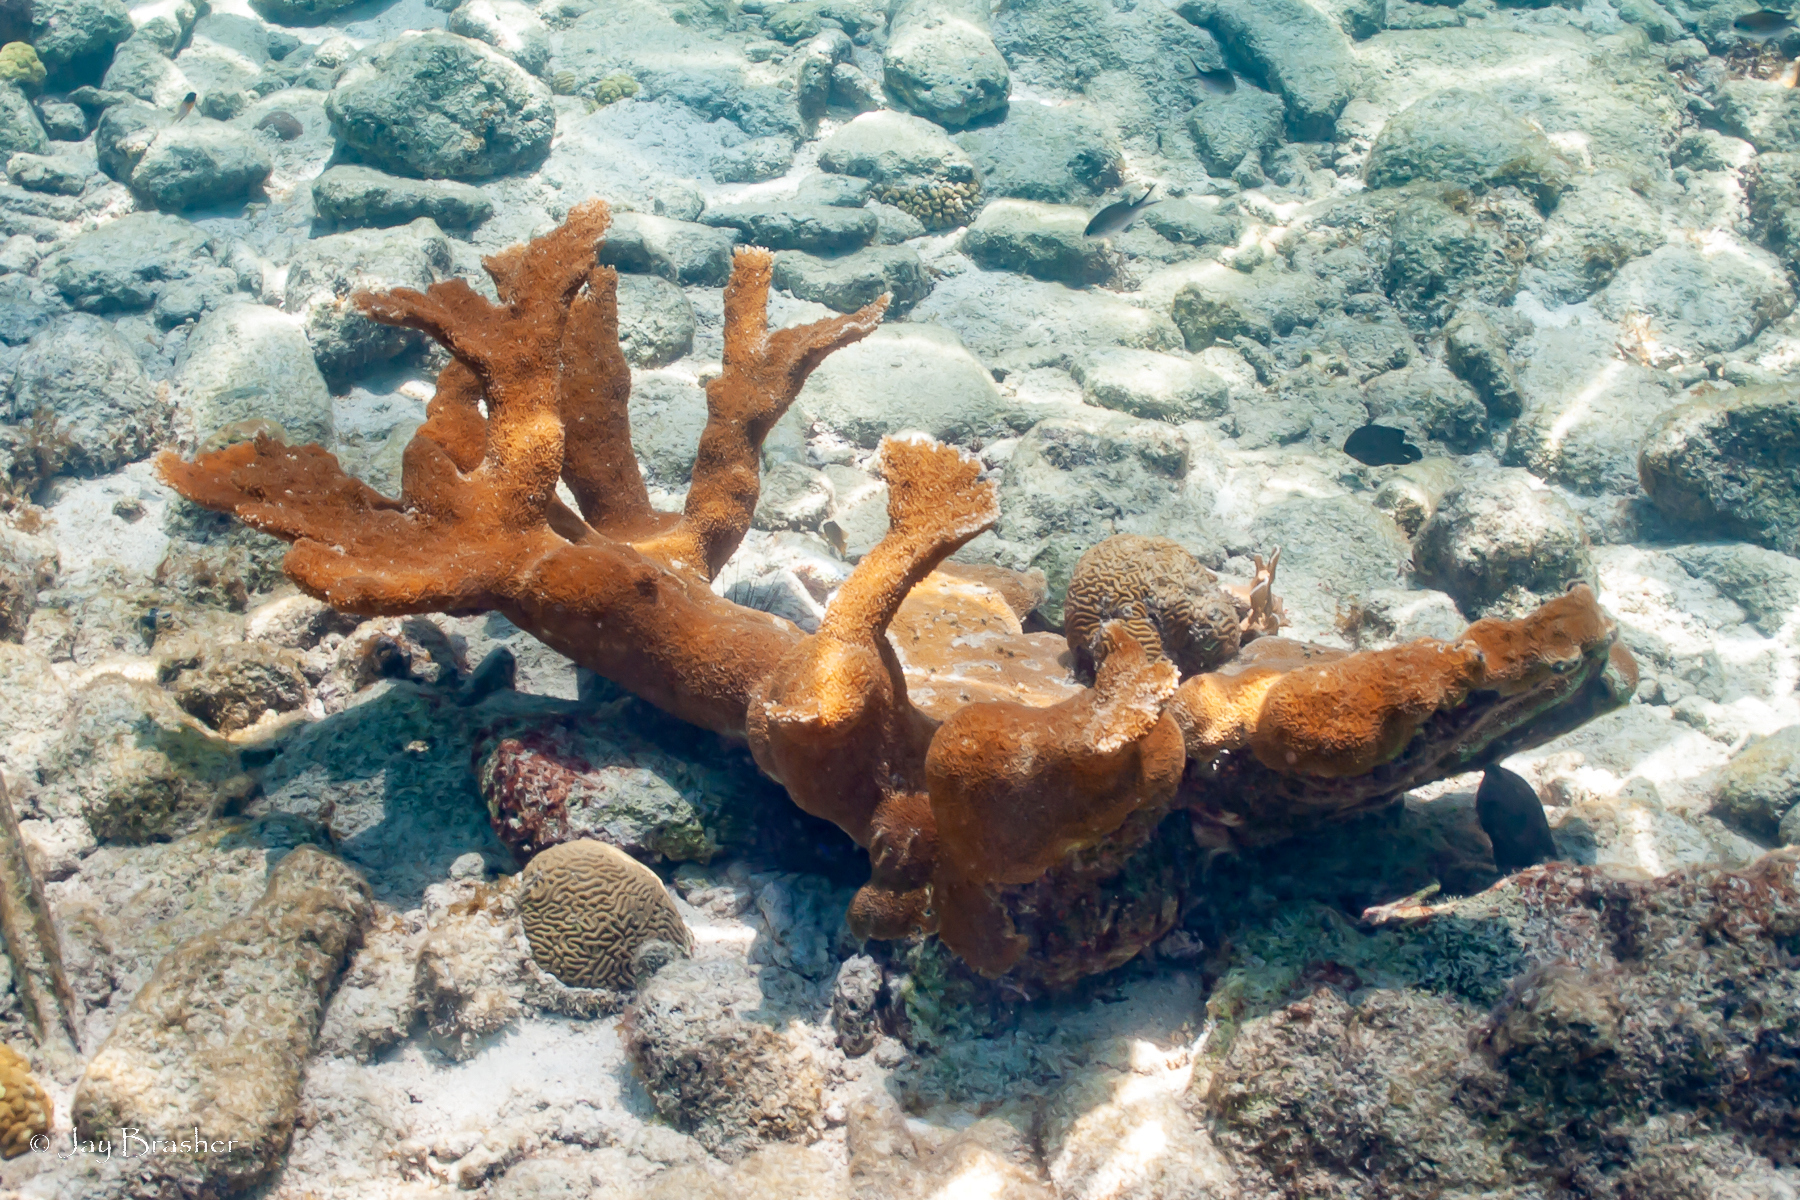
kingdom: Animalia
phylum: Cnidaria
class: Anthozoa
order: Scleractinia
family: Acroporidae
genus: Acropora
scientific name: Acropora palmata
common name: Elkhorn coral
